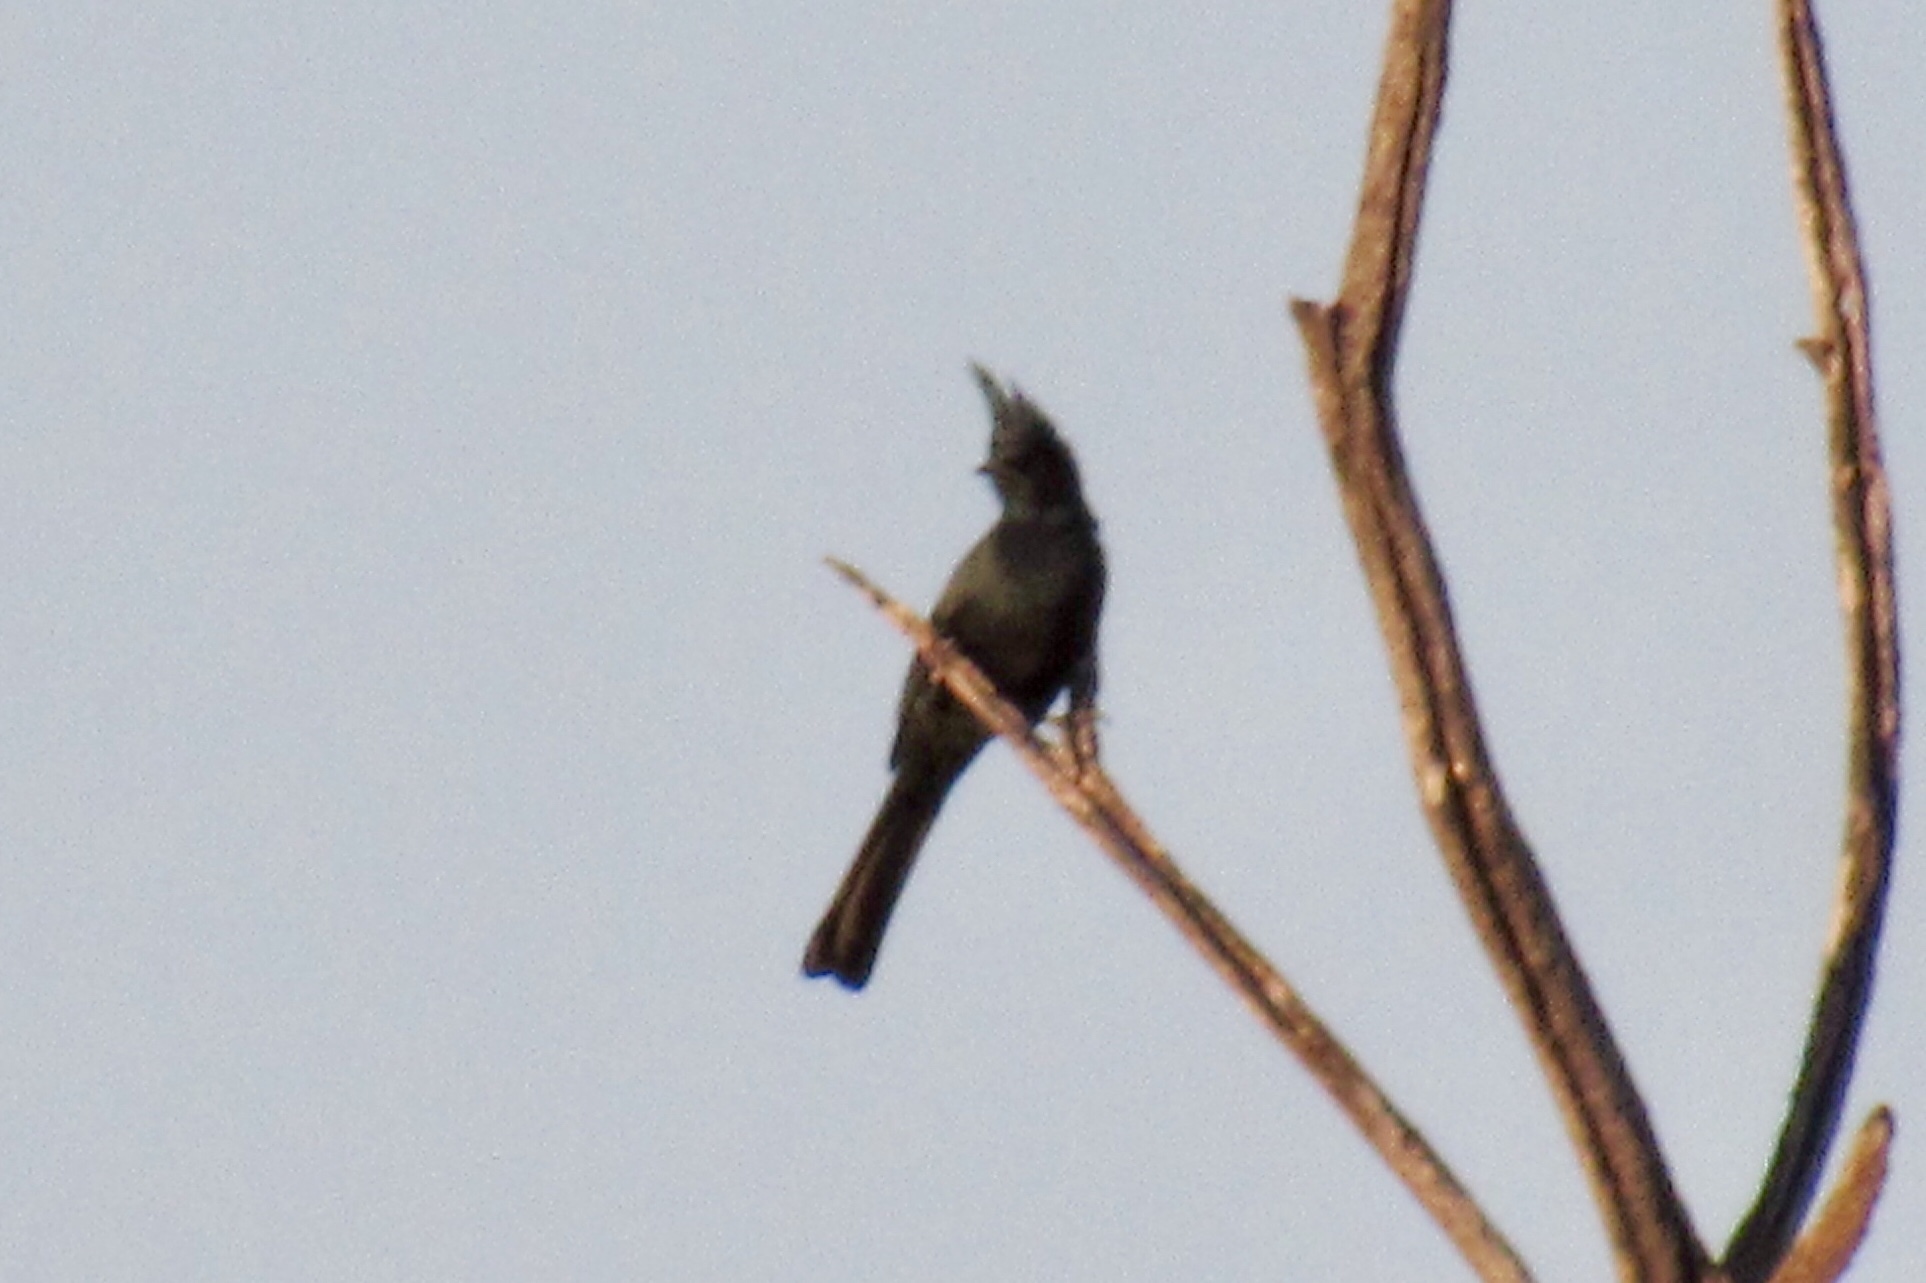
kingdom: Animalia
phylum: Chordata
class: Aves
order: Passeriformes
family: Ptilogonatidae
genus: Phainopepla
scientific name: Phainopepla nitens
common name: Phainopepla
